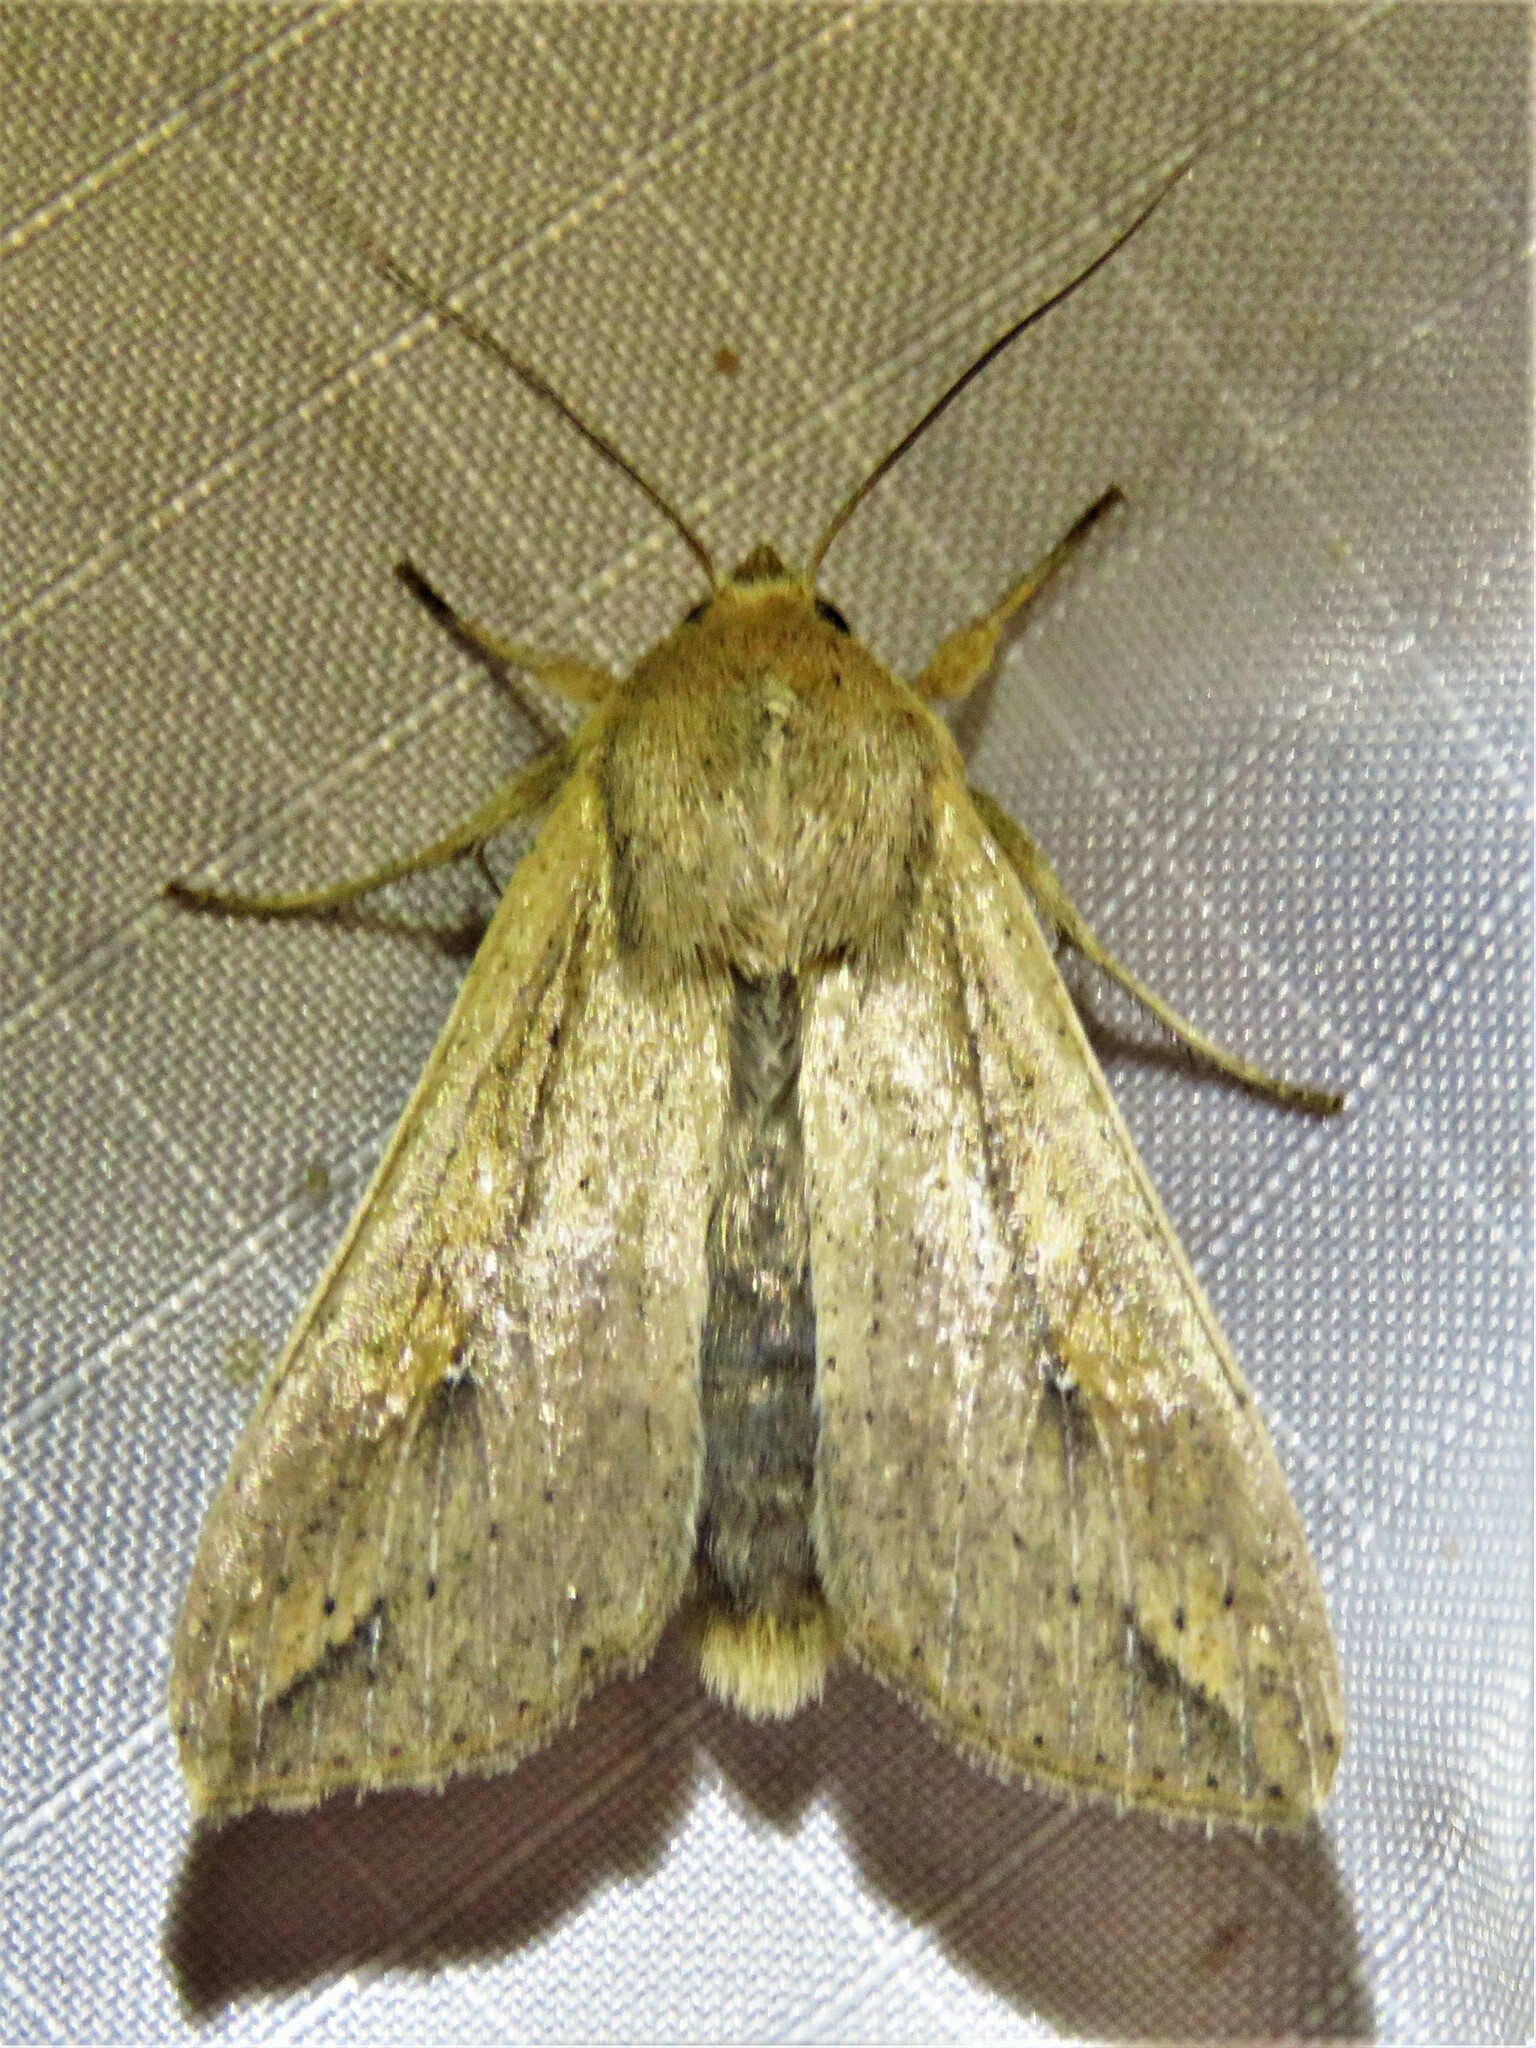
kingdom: Animalia
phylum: Arthropoda
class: Insecta
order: Lepidoptera
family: Noctuidae
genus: Mythimna
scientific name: Mythimna unipuncta
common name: White-speck
